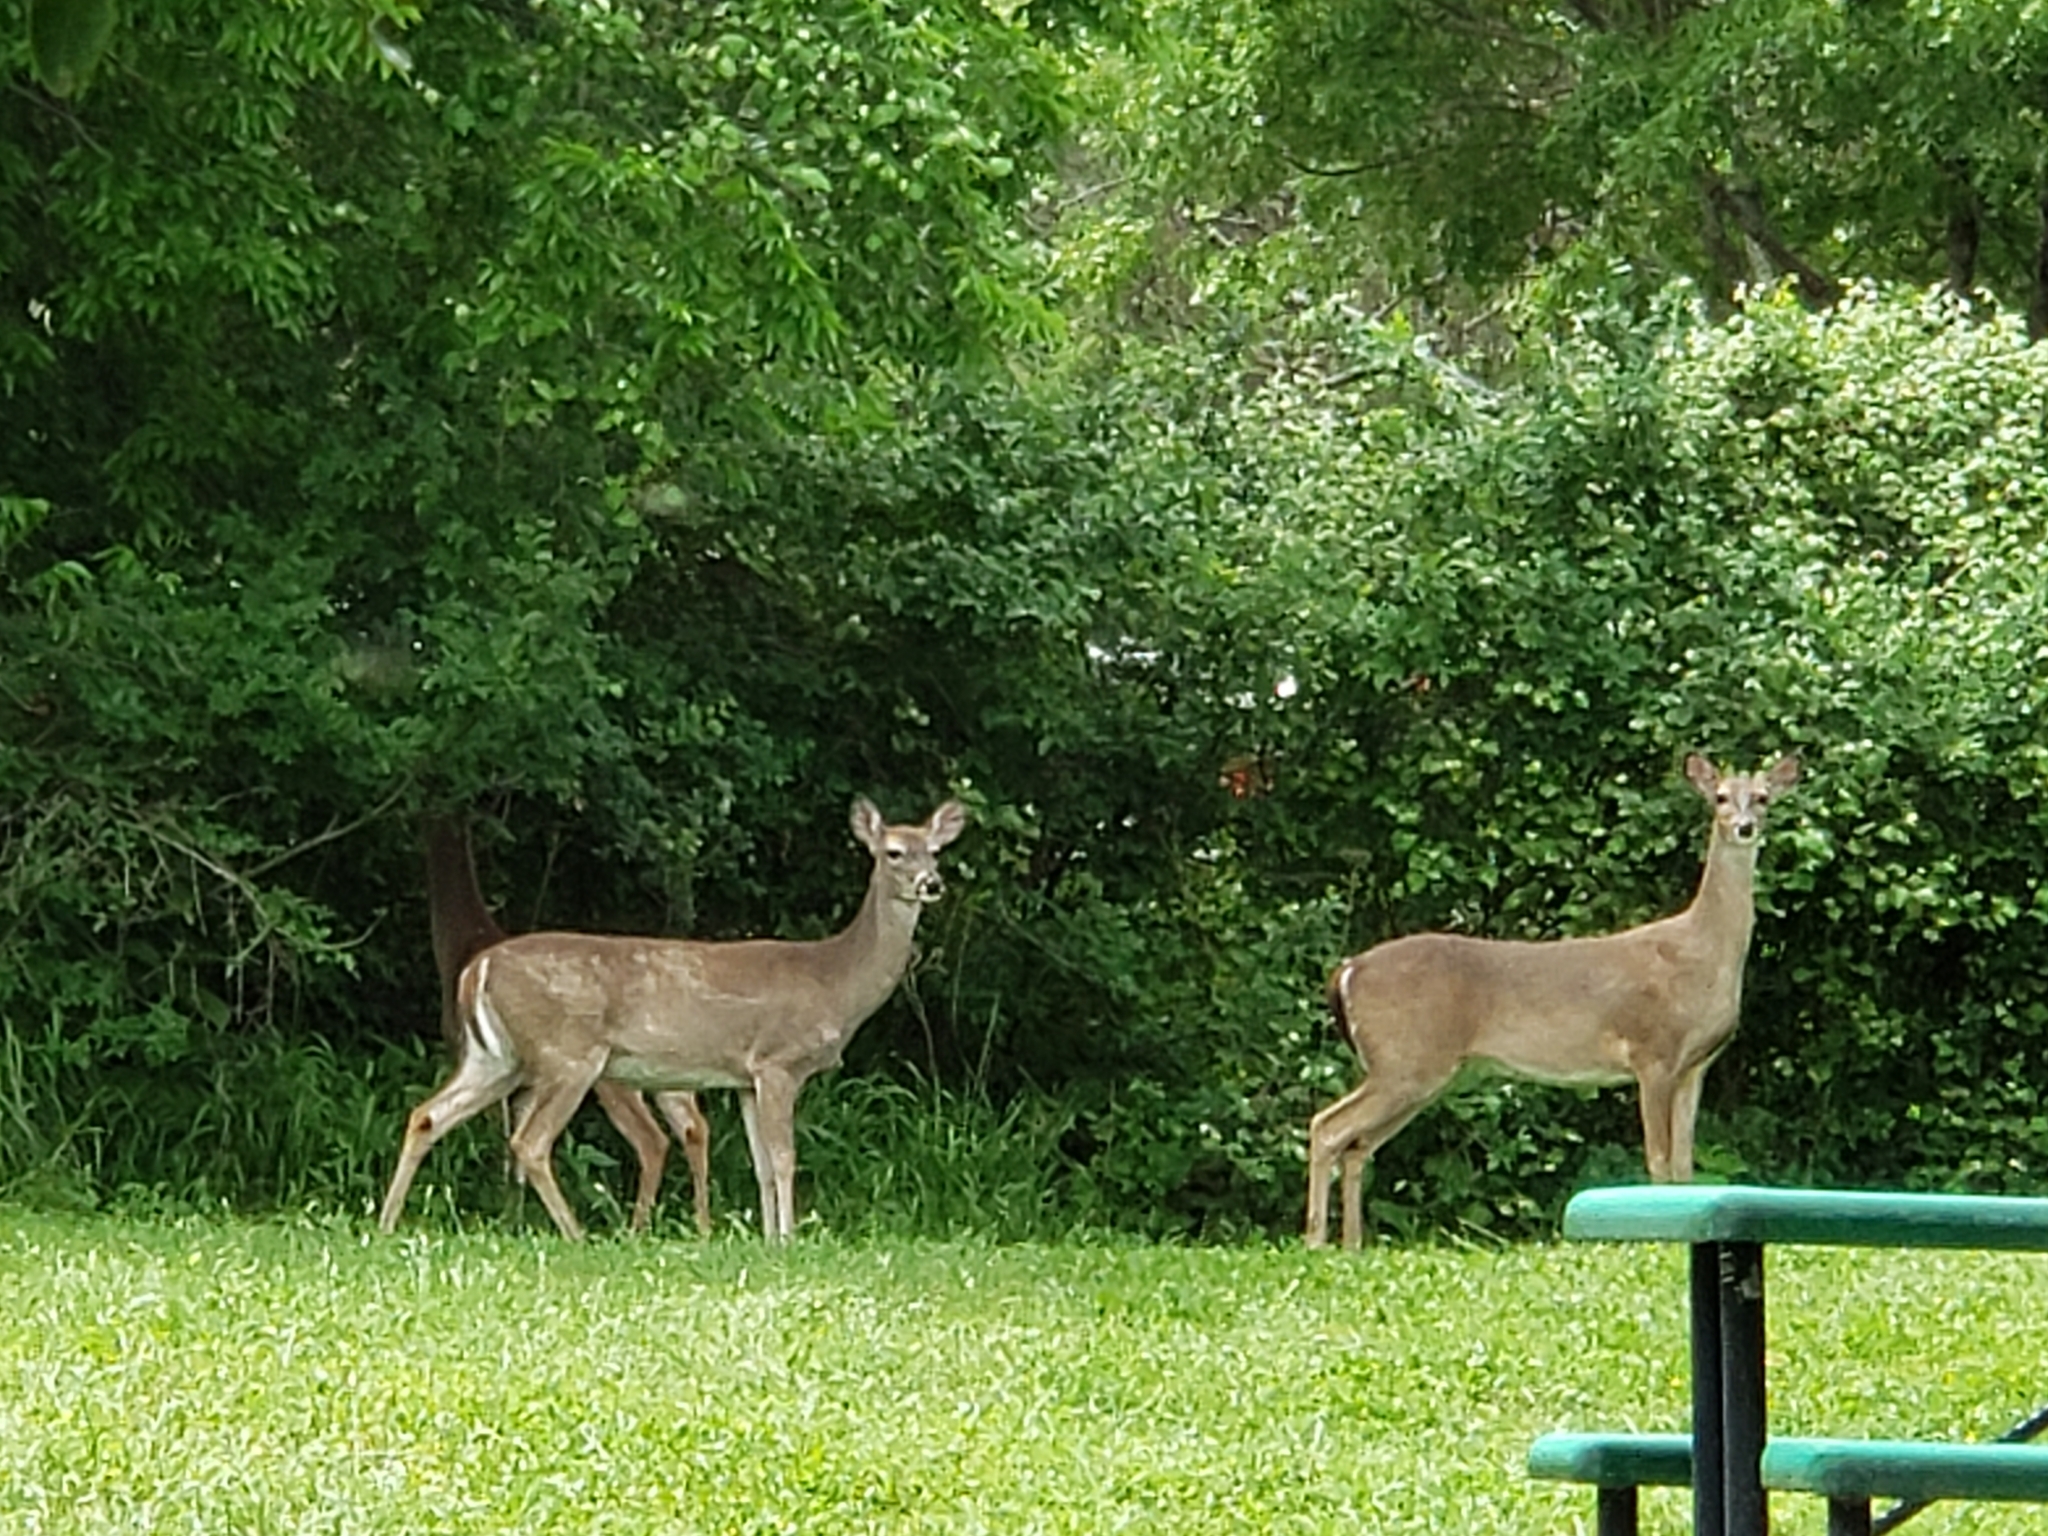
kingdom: Animalia
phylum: Chordata
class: Mammalia
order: Artiodactyla
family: Cervidae
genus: Odocoileus
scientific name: Odocoileus virginianus
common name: White-tailed deer
